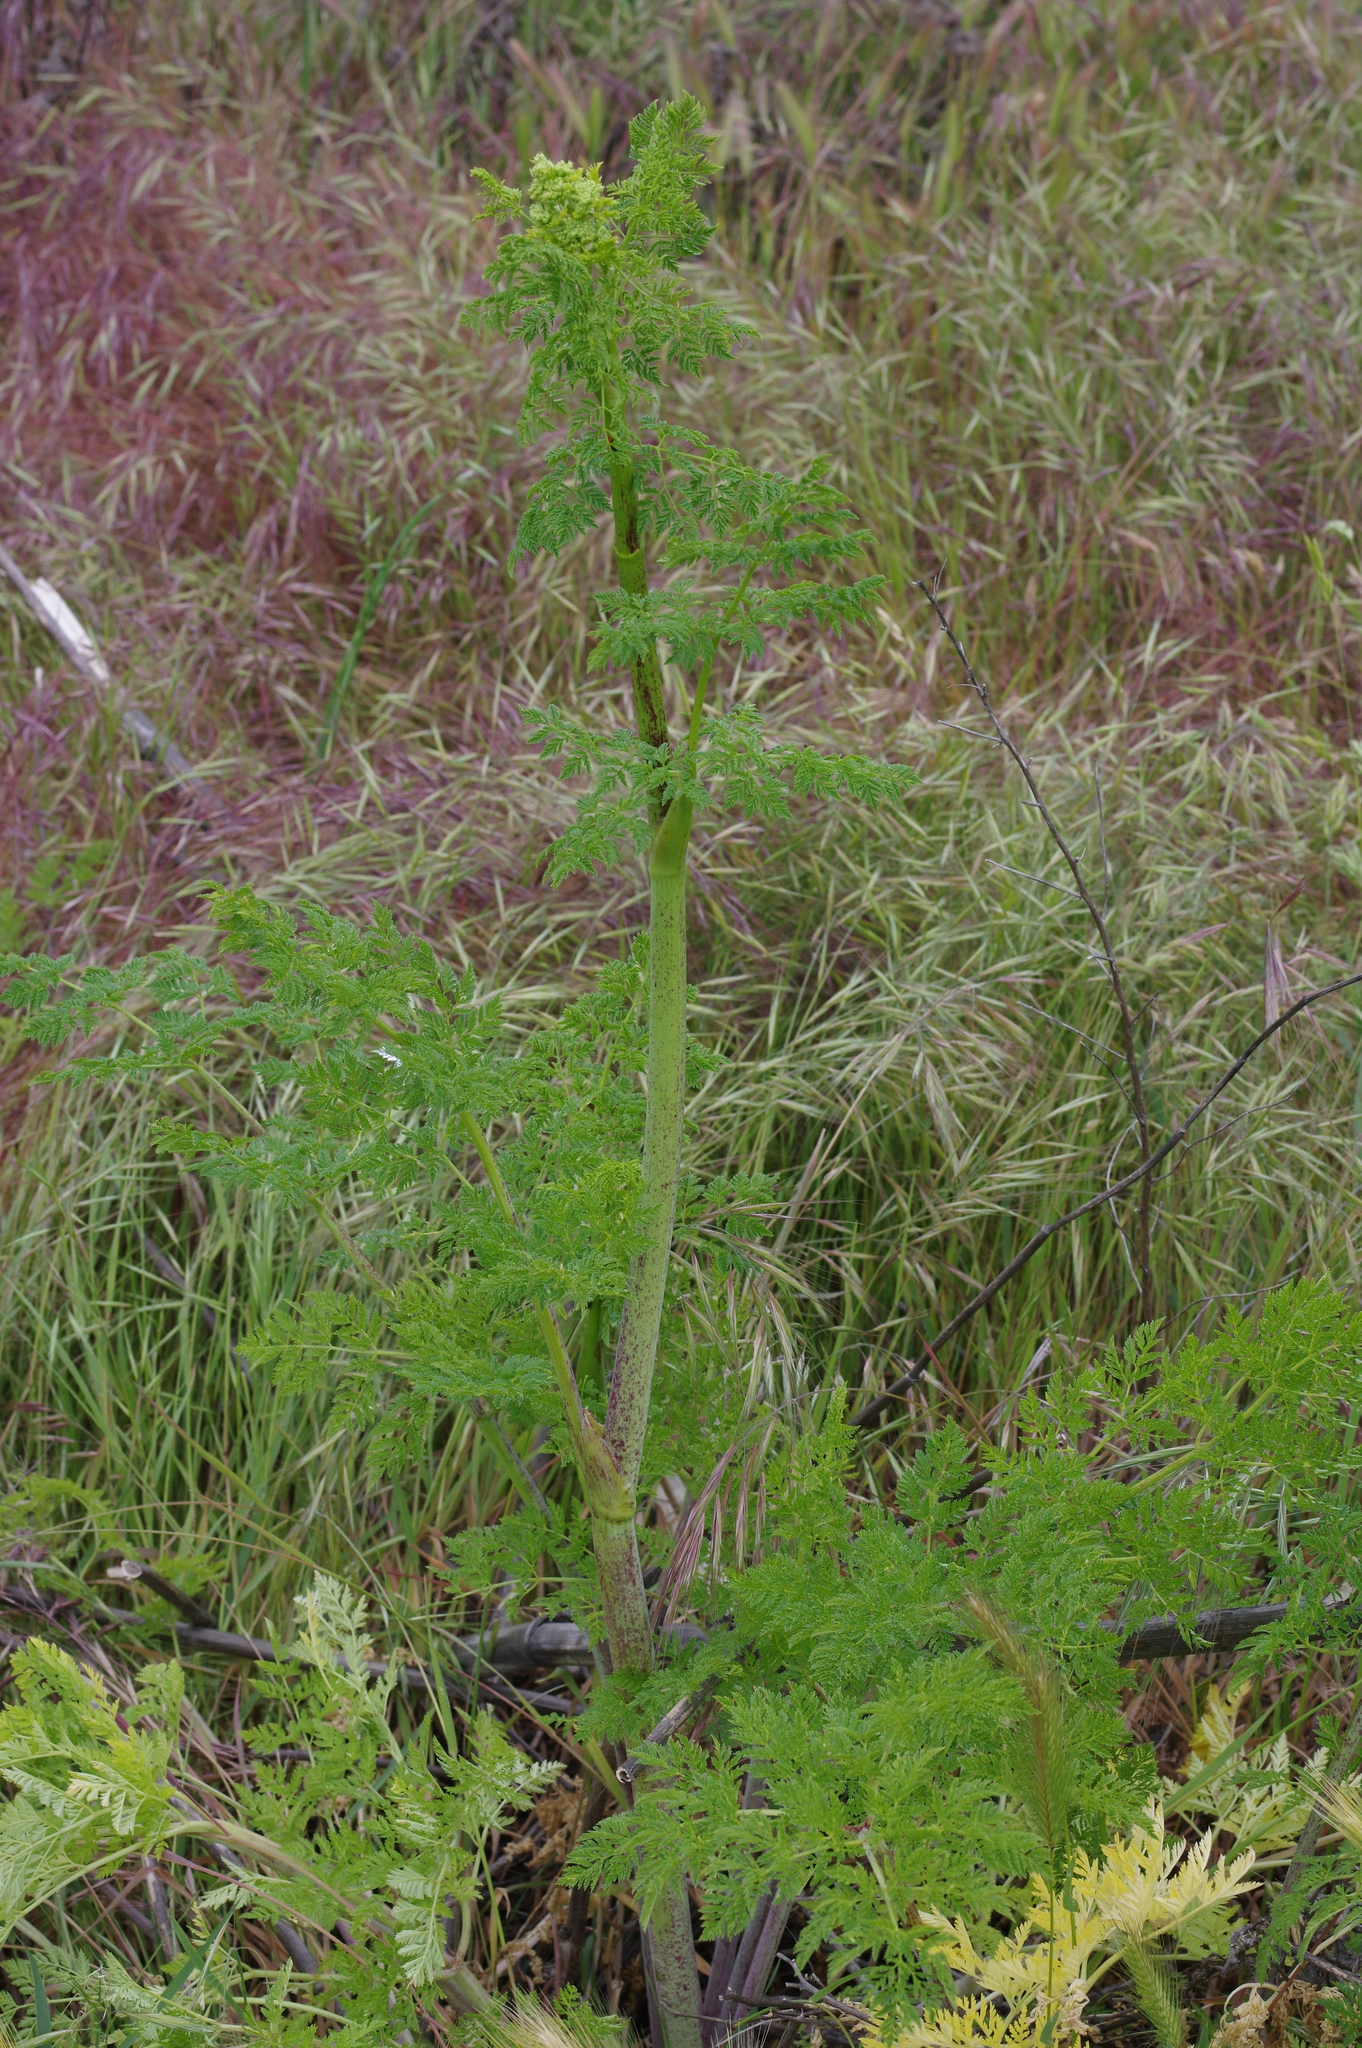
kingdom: Plantae
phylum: Tracheophyta
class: Magnoliopsida
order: Apiales
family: Apiaceae
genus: Conium
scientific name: Conium maculatum
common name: Hemlock
